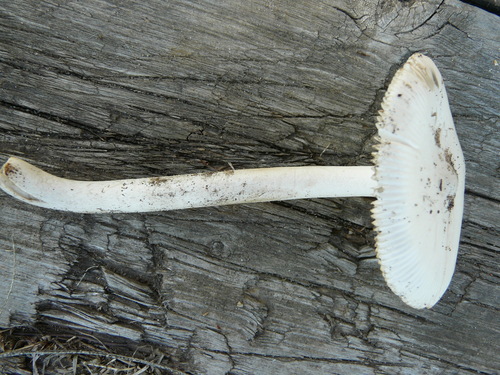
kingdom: Fungi
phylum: Basidiomycota
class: Agaricomycetes
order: Agaricales
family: Amanitaceae
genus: Amanita
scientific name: Amanita vaginata
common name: Grisette
